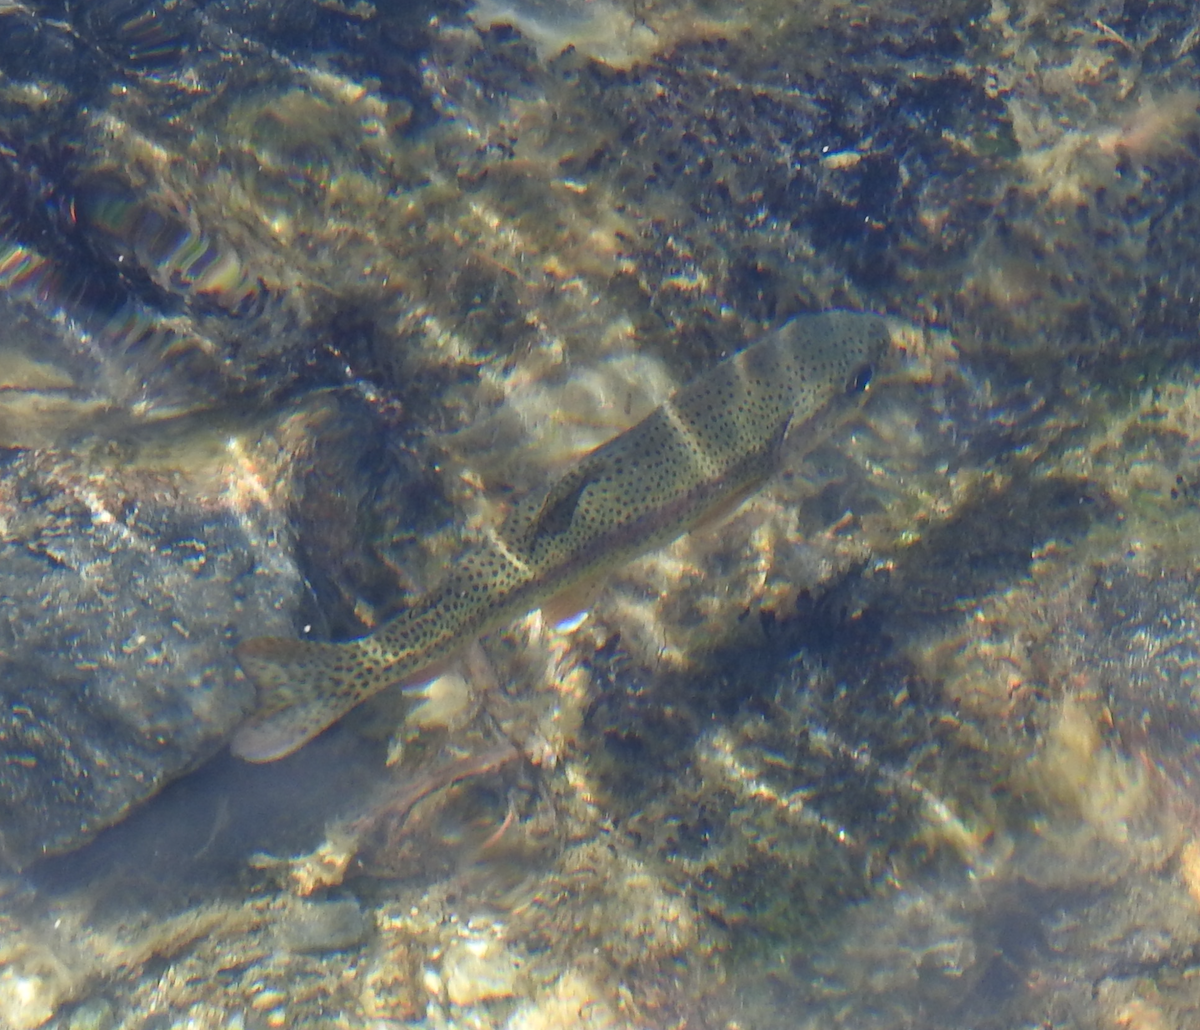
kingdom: Animalia
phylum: Chordata
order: Salmoniformes
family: Salmonidae
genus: Oncorhynchus
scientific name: Oncorhynchus mykiss
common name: Rainbow trout
